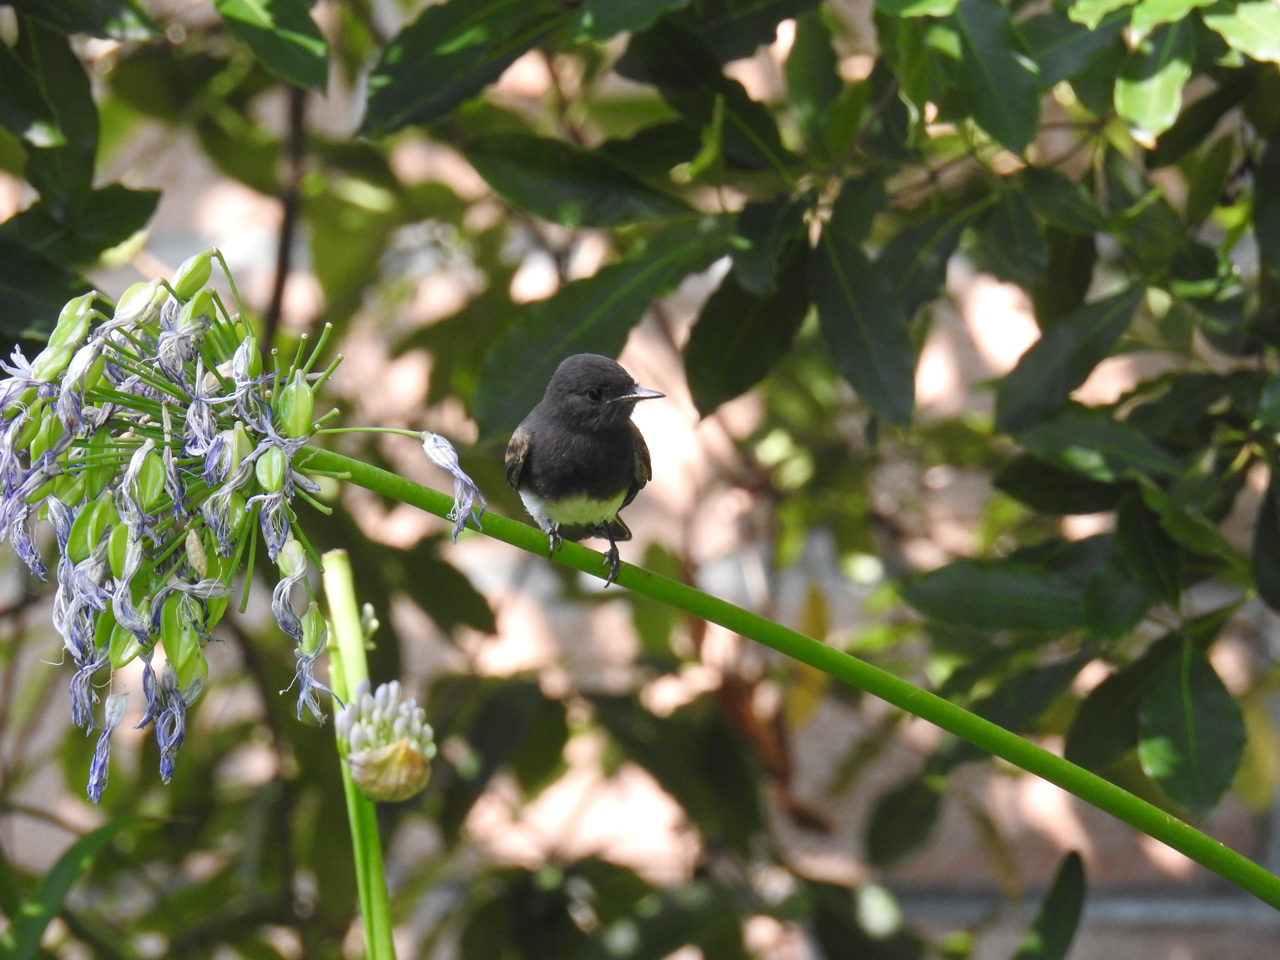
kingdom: Animalia
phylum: Chordata
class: Aves
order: Passeriformes
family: Tyrannidae
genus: Sayornis
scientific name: Sayornis nigricans
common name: Black phoebe
